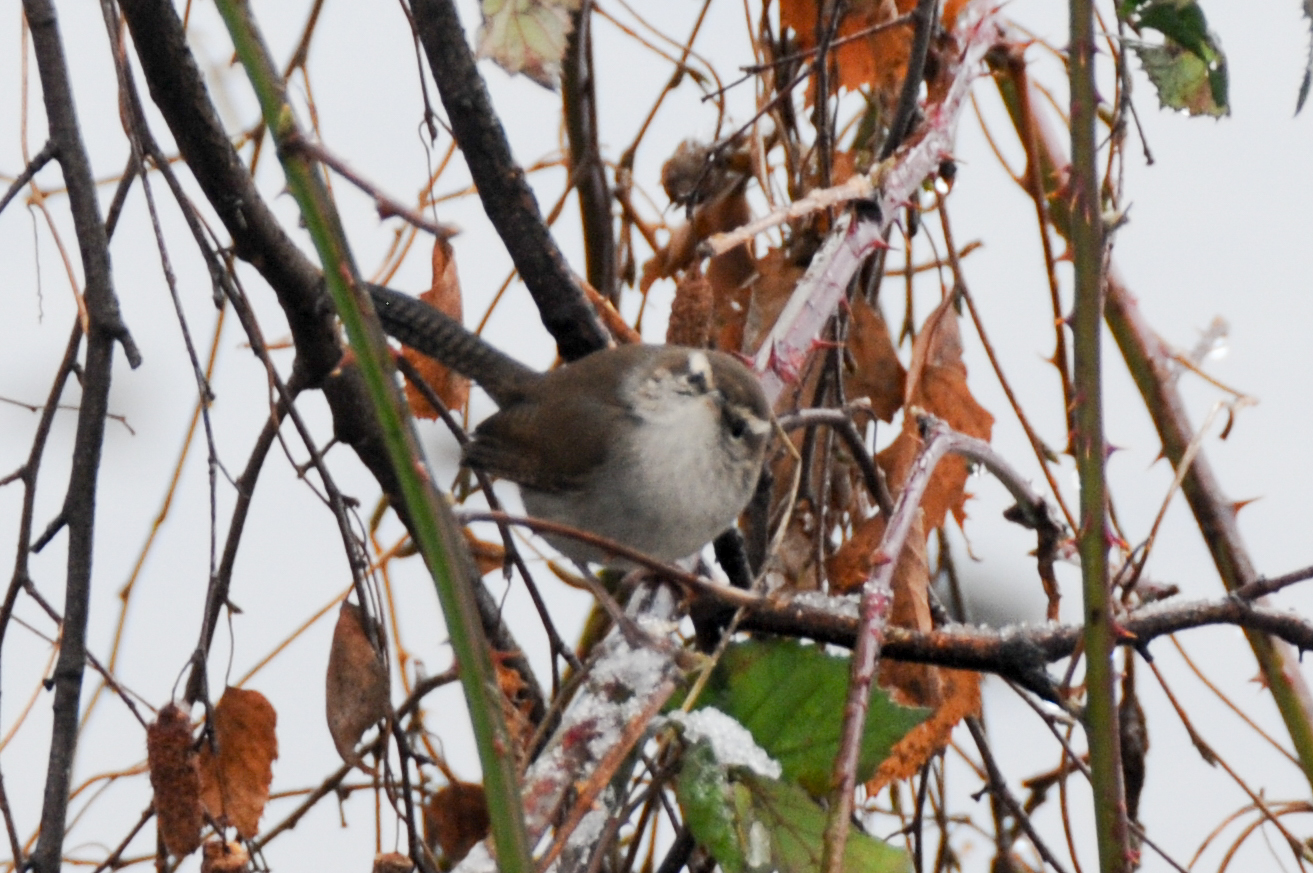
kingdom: Animalia
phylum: Chordata
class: Aves
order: Passeriformes
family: Troglodytidae
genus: Thryomanes
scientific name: Thryomanes bewickii
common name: Bewick's wren
